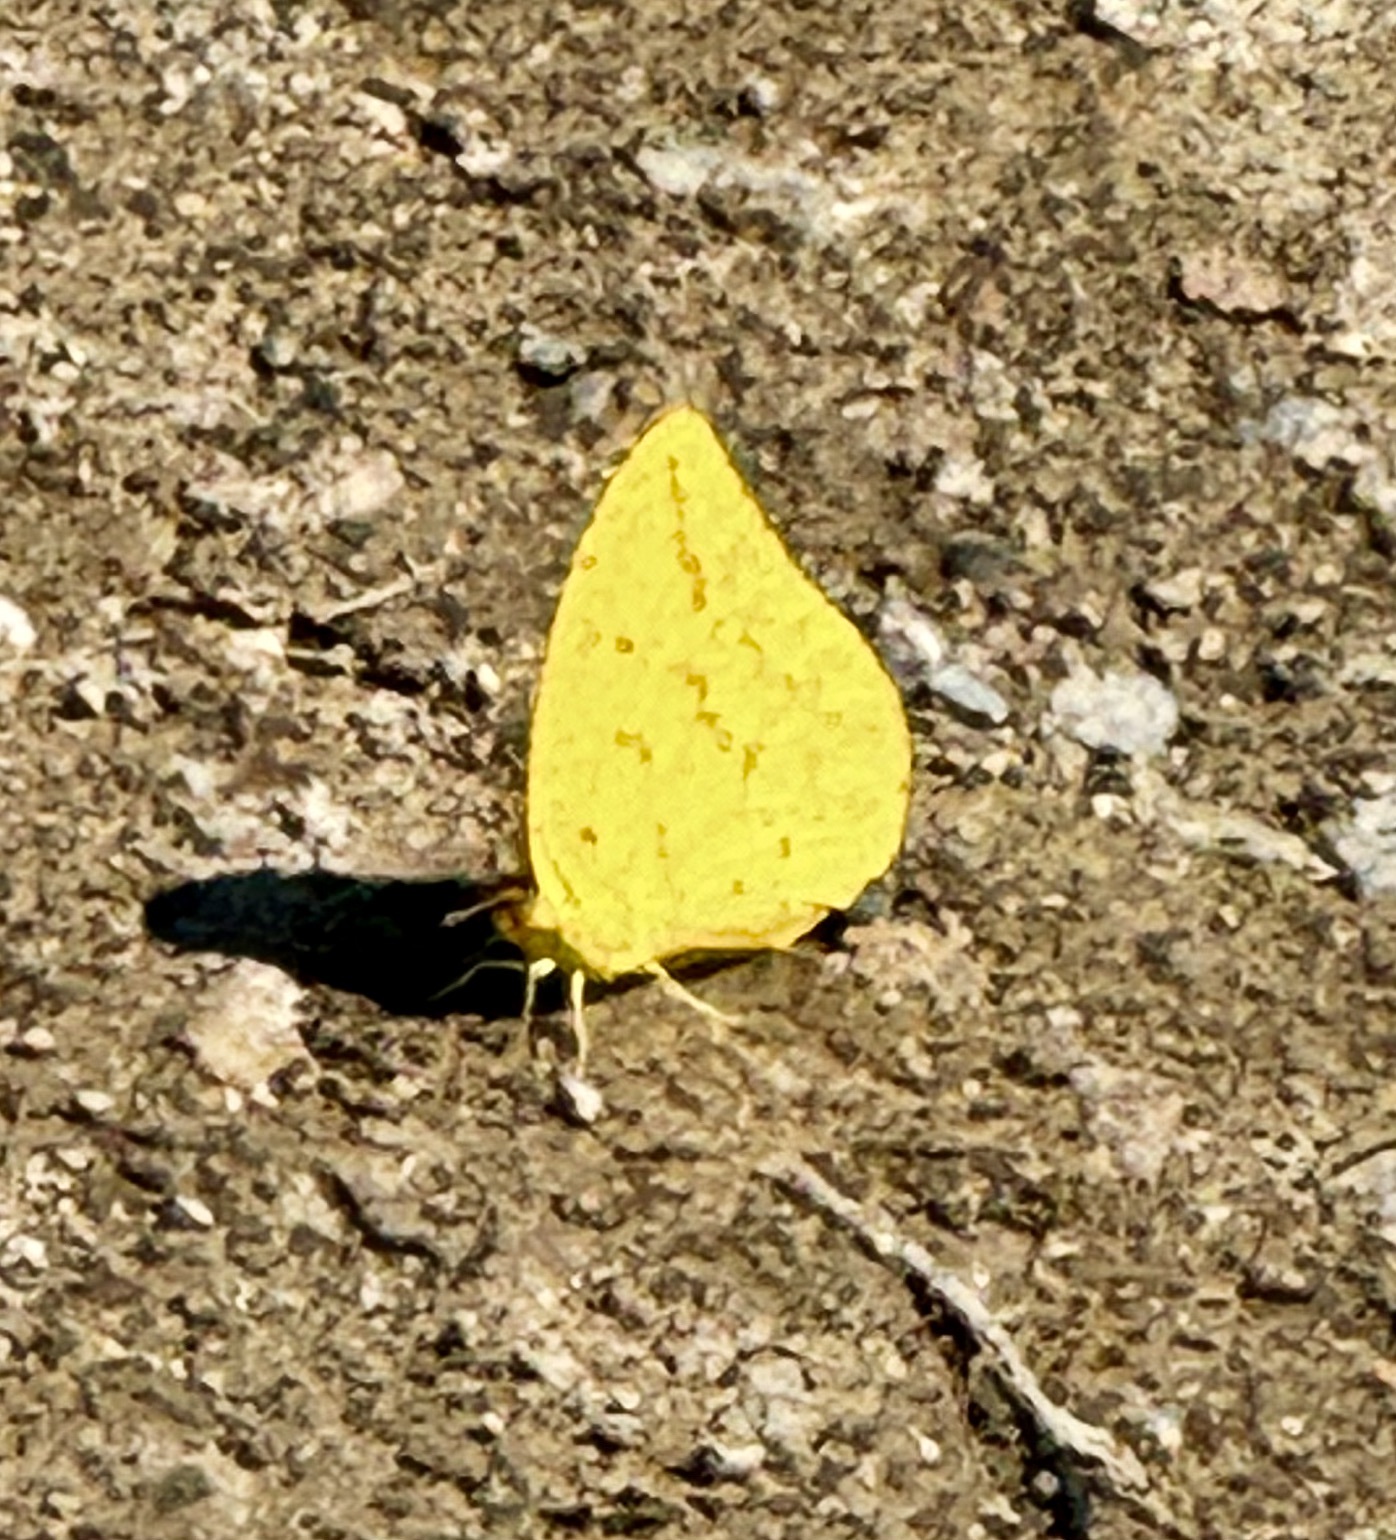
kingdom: Animalia
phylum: Arthropoda
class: Insecta
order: Lepidoptera
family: Pieridae
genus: Phoebis
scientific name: Phoebis agarithe
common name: Large orange sulphur
